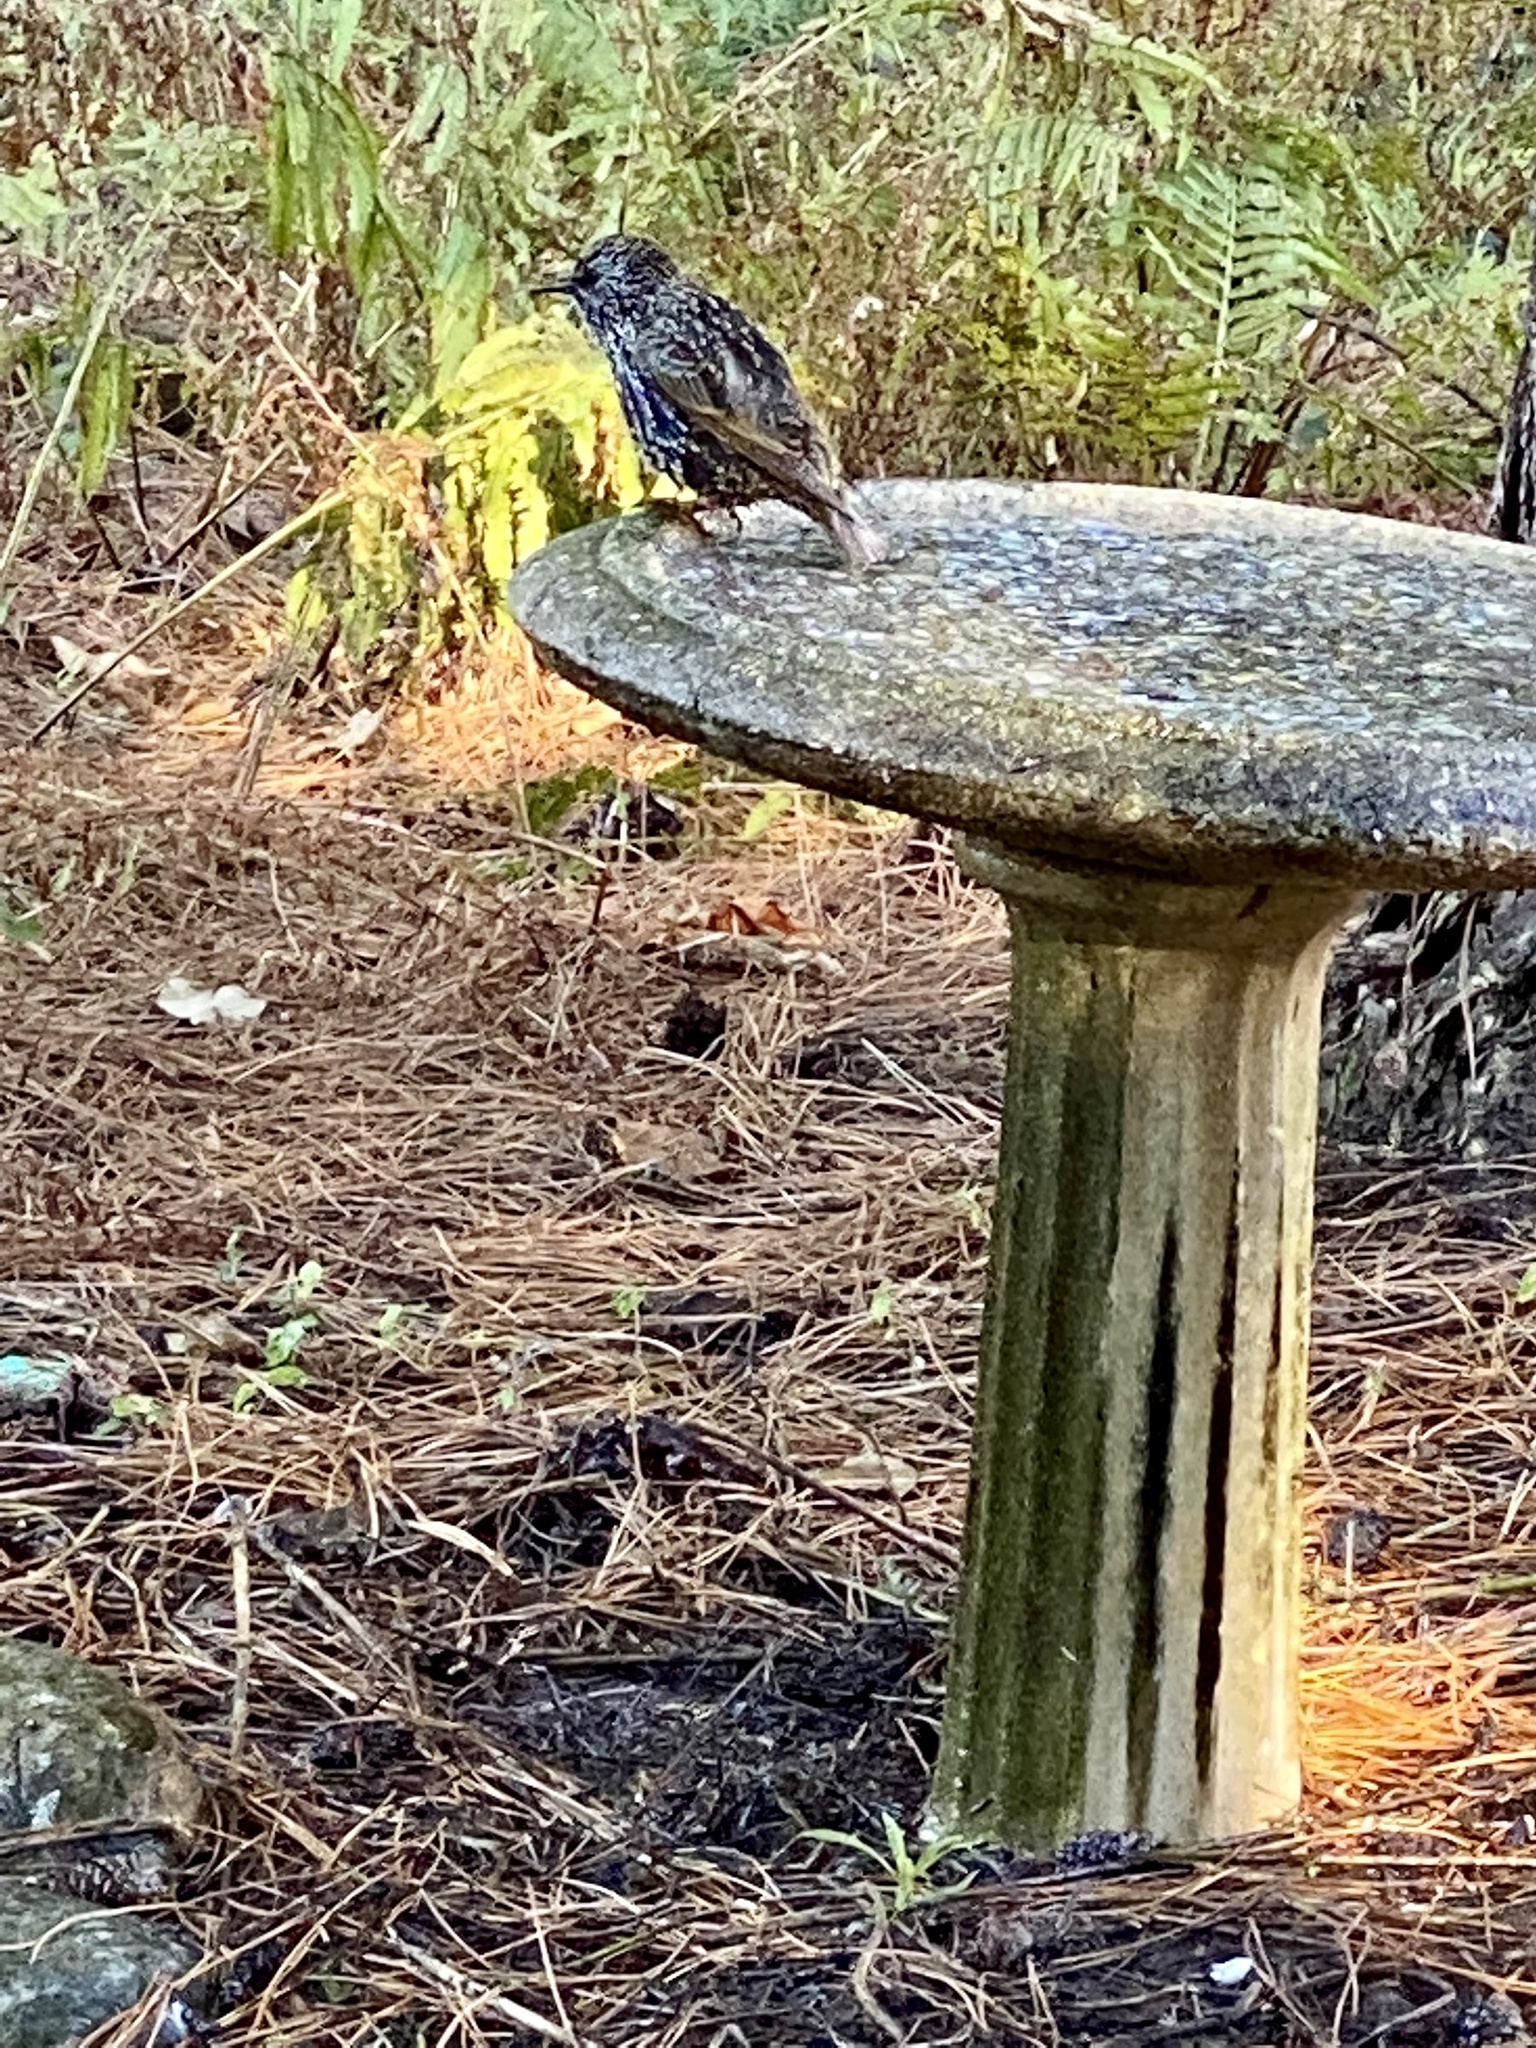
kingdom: Animalia
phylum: Chordata
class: Aves
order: Passeriformes
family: Sturnidae
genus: Sturnus
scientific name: Sturnus vulgaris
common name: Common starling
